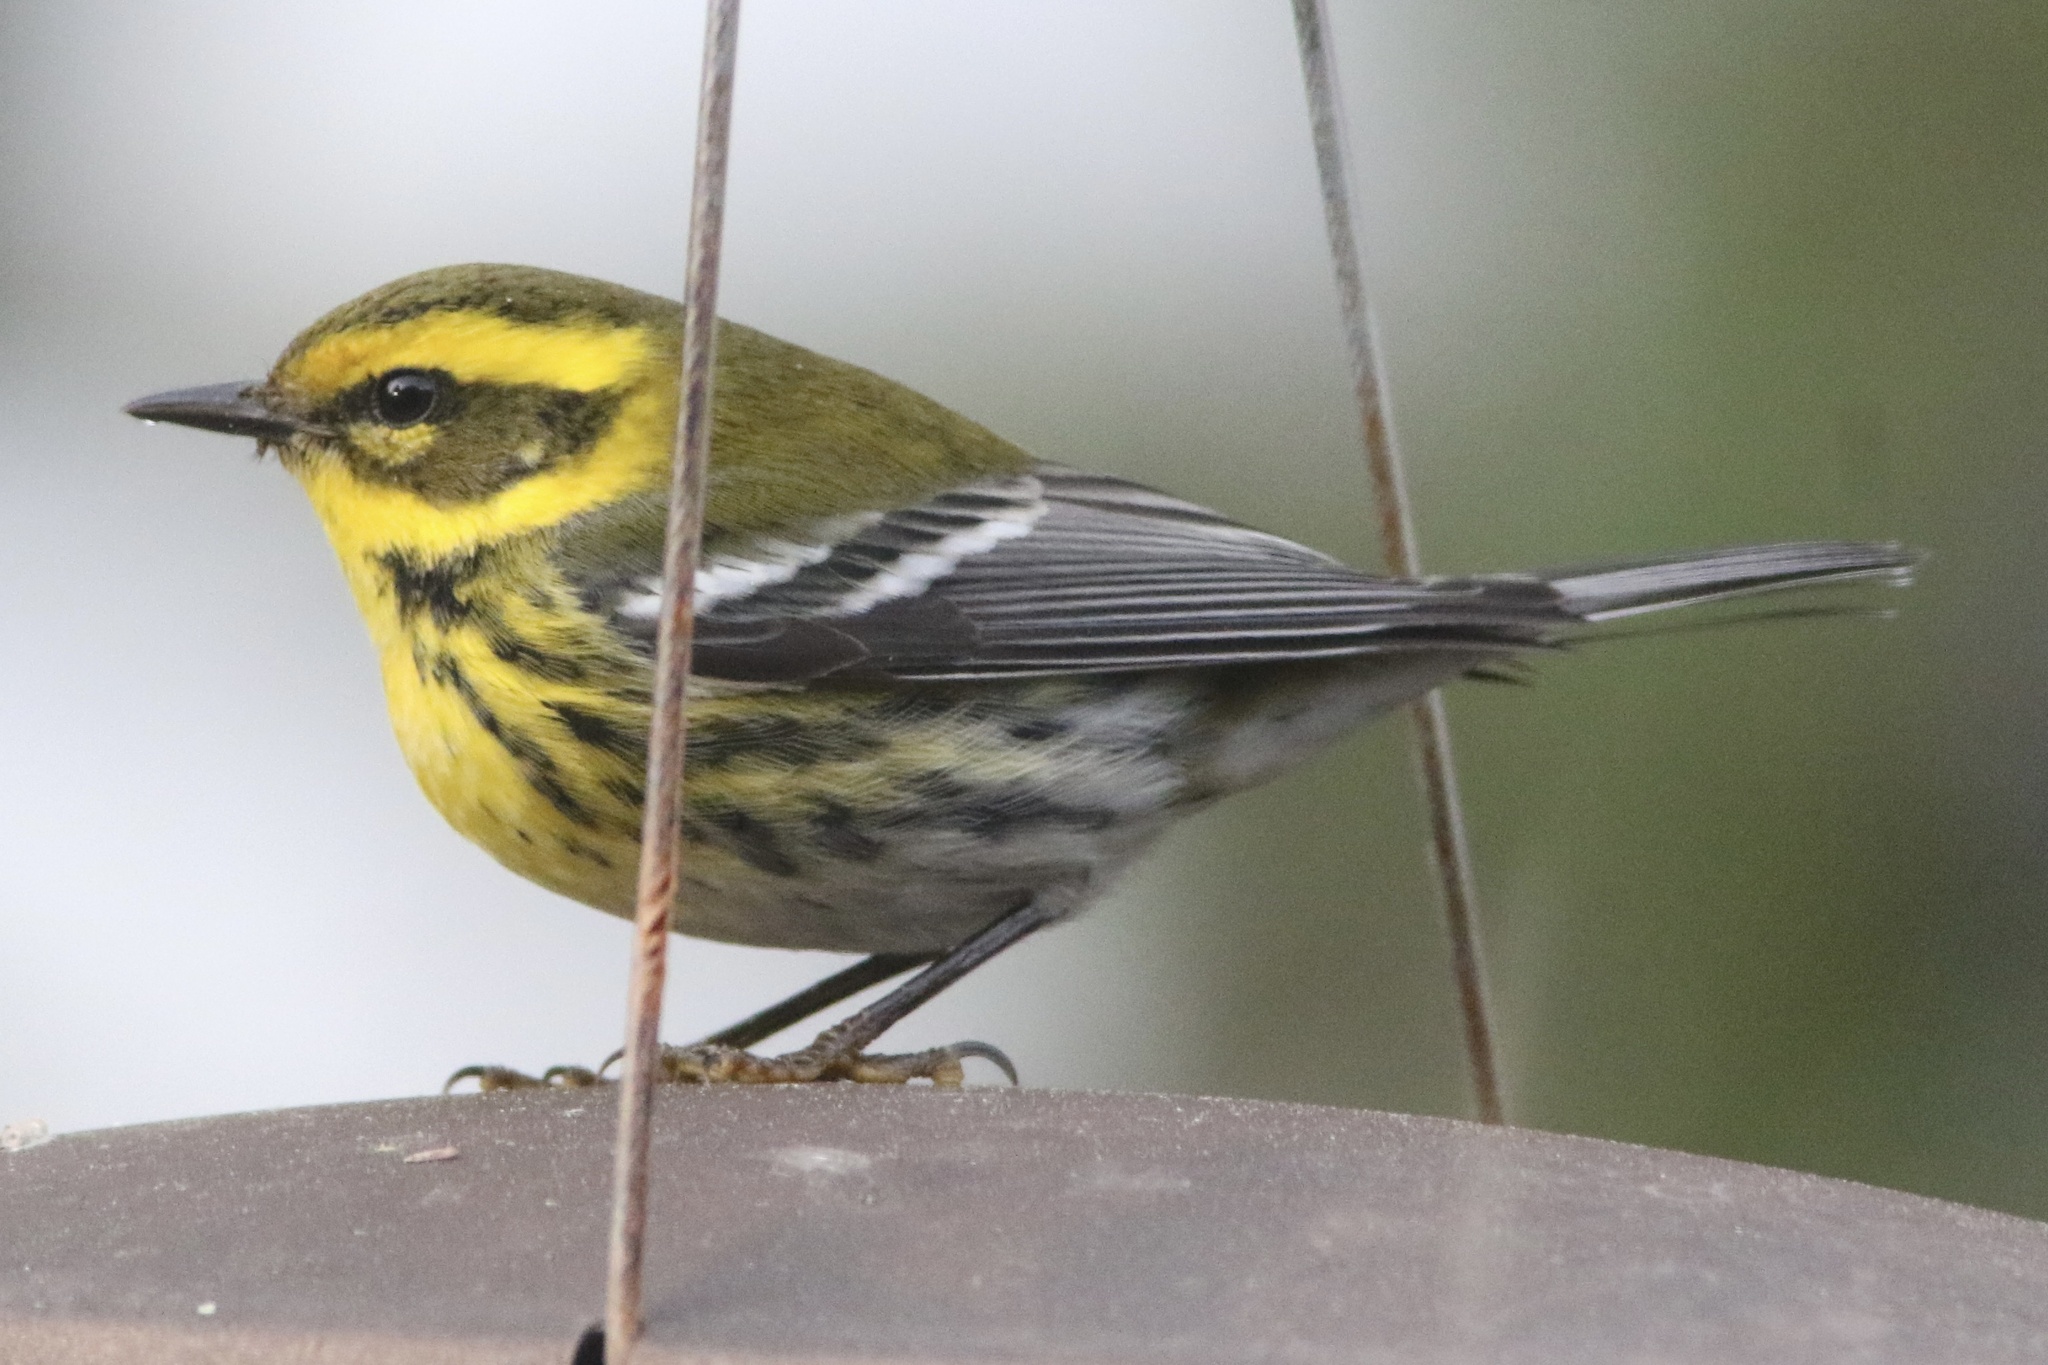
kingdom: Animalia
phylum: Chordata
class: Aves
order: Passeriformes
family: Parulidae
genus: Setophaga
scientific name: Setophaga townsendi
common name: Townsend's warbler
